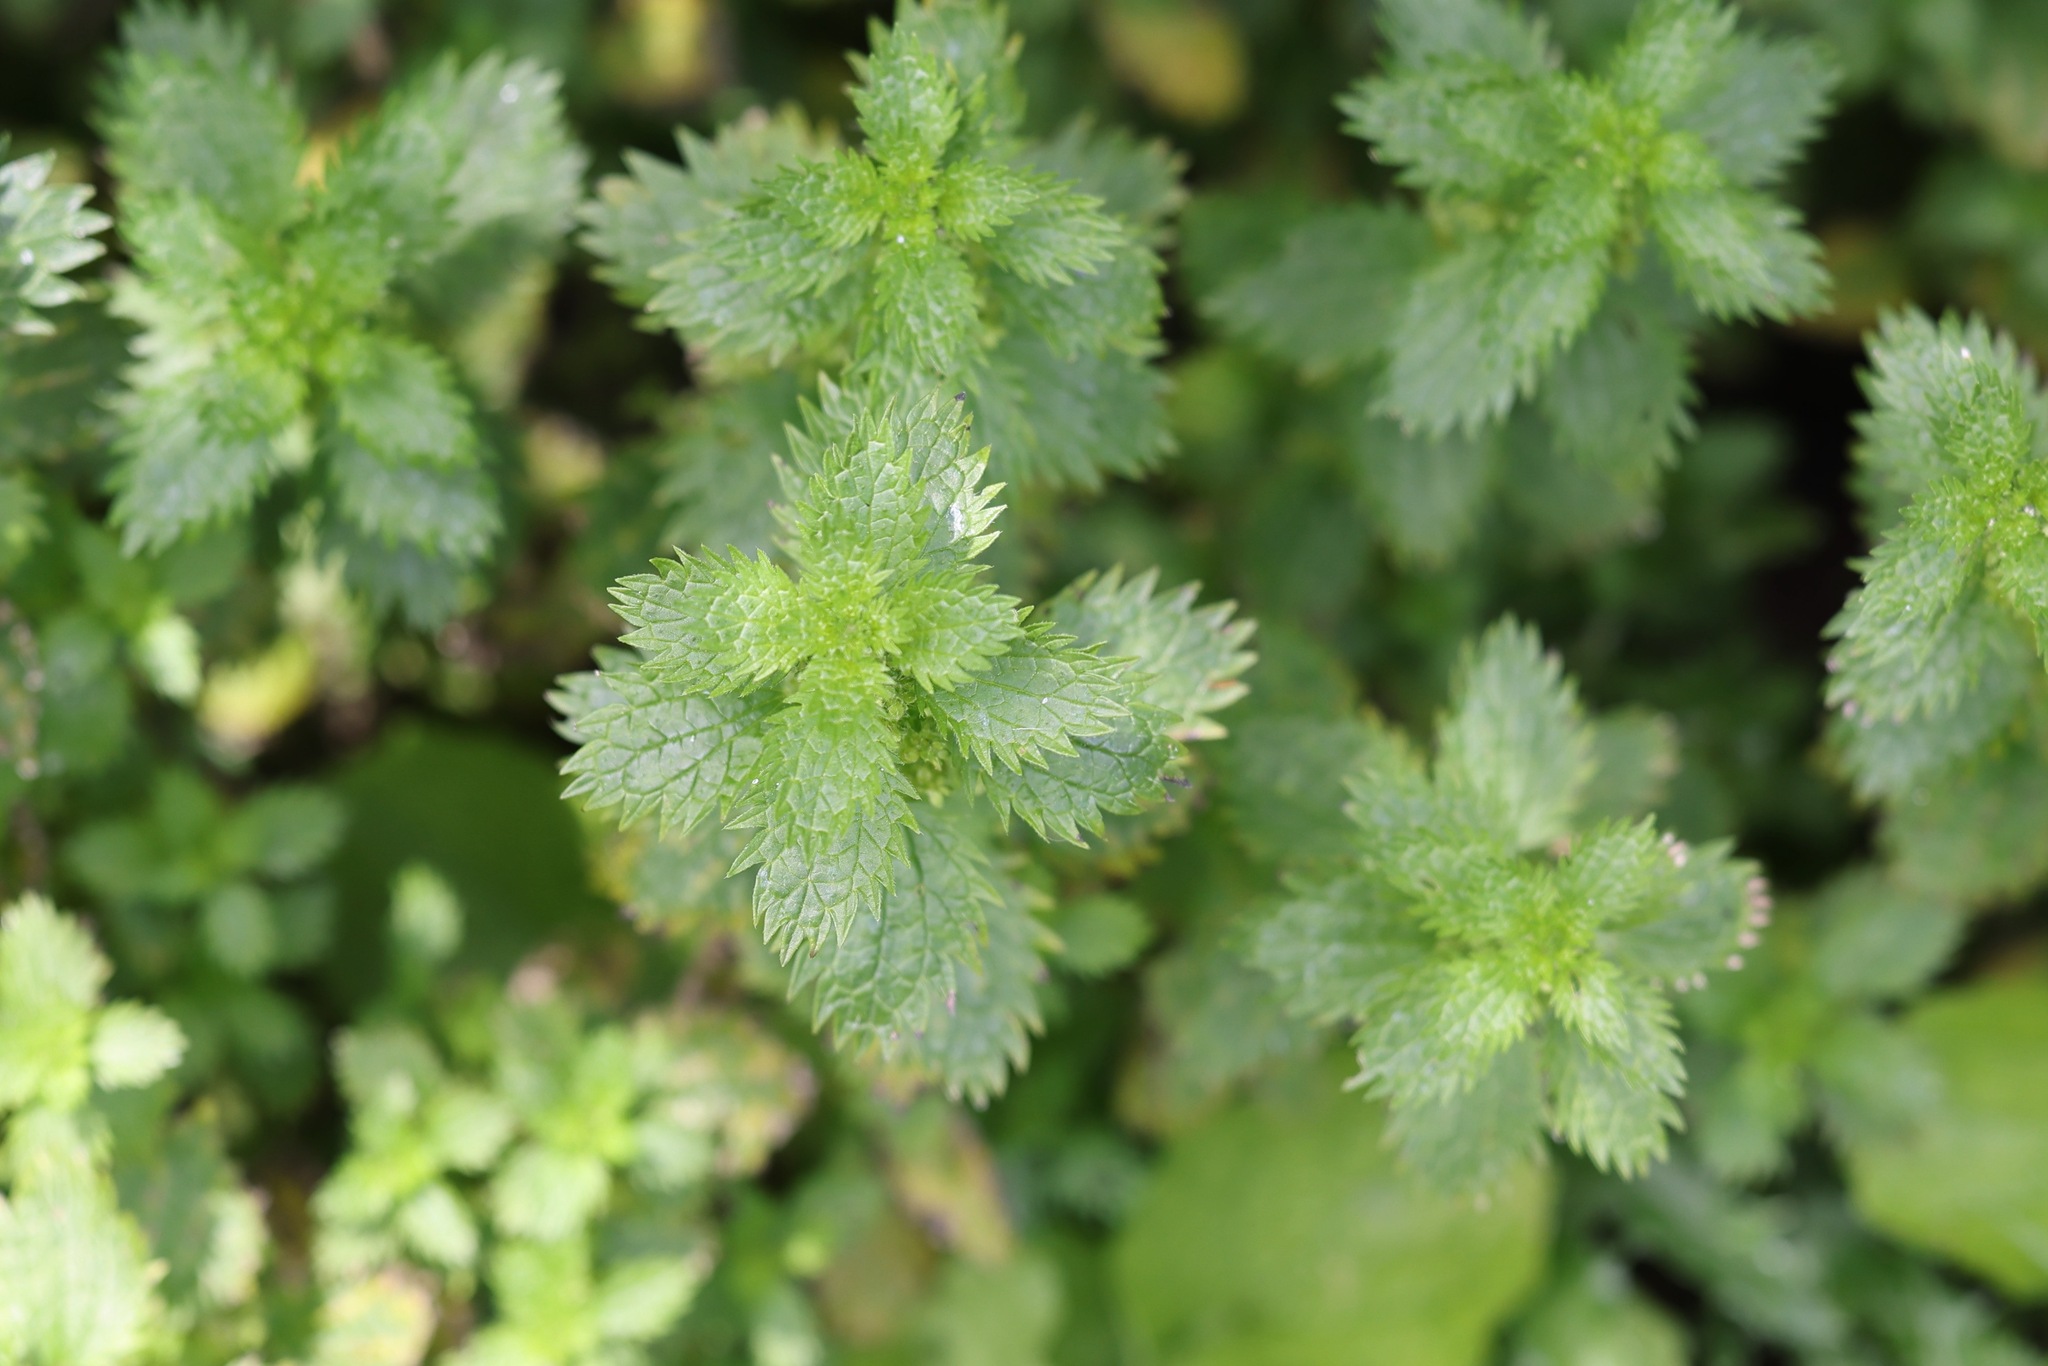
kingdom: Plantae
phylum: Tracheophyta
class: Magnoliopsida
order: Rosales
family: Urticaceae
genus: Urtica
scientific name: Urtica urens
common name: Dwarf nettle
